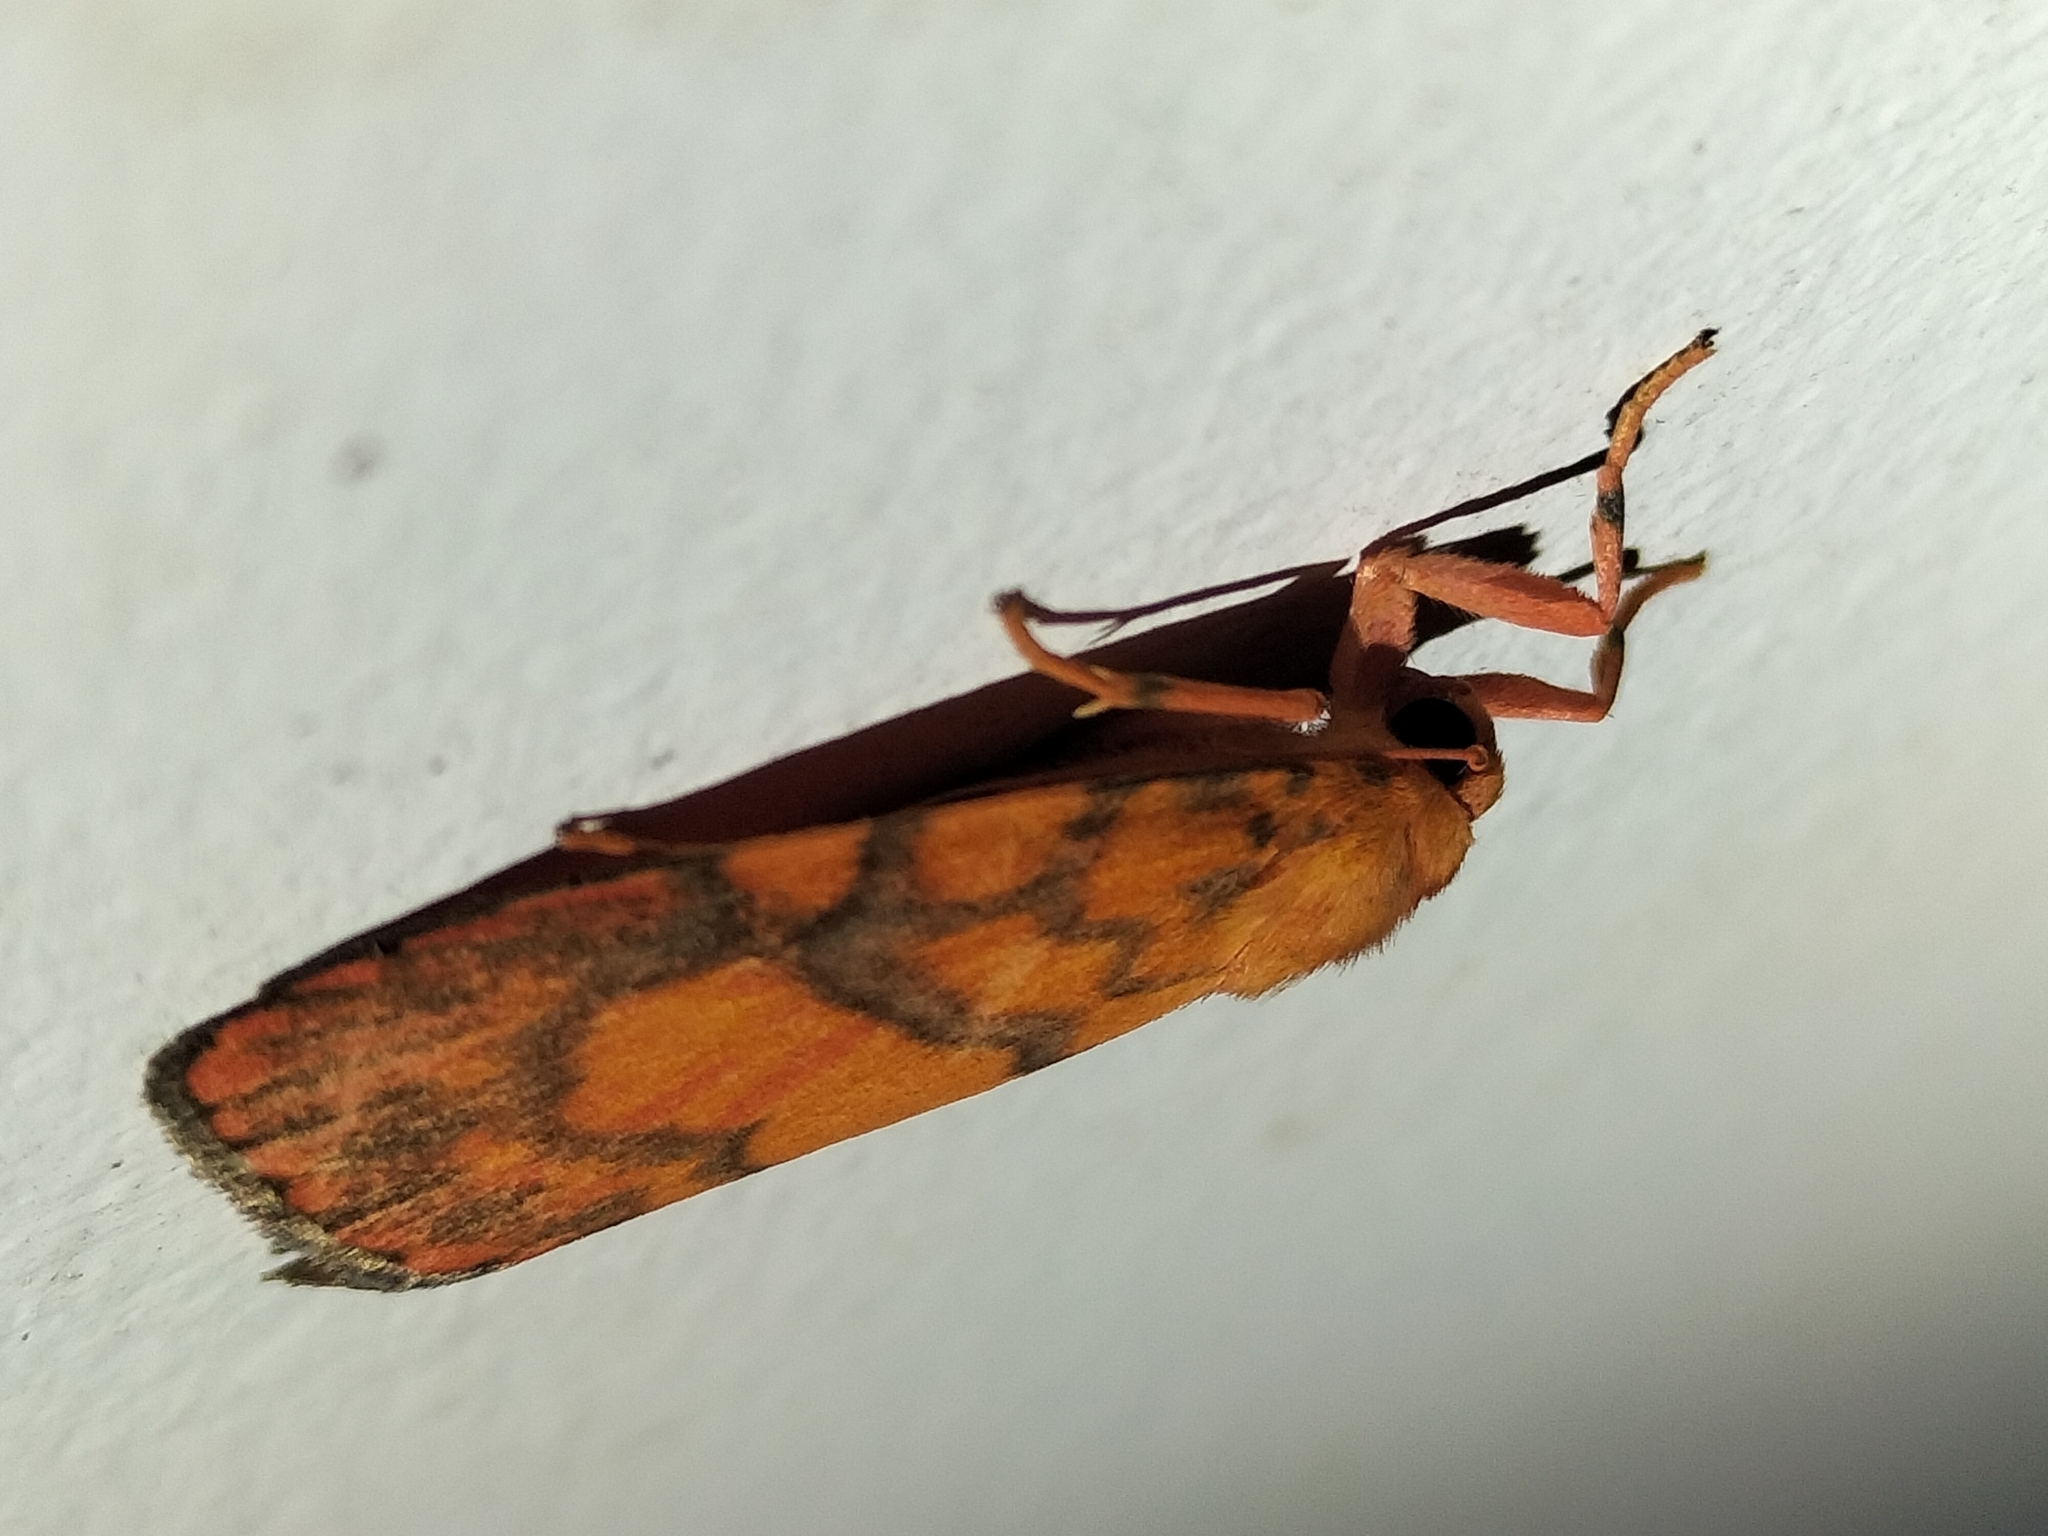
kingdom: Animalia
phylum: Arthropoda
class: Insecta
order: Lepidoptera
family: Erebidae
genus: Cyme
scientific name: Cyme pyraula
